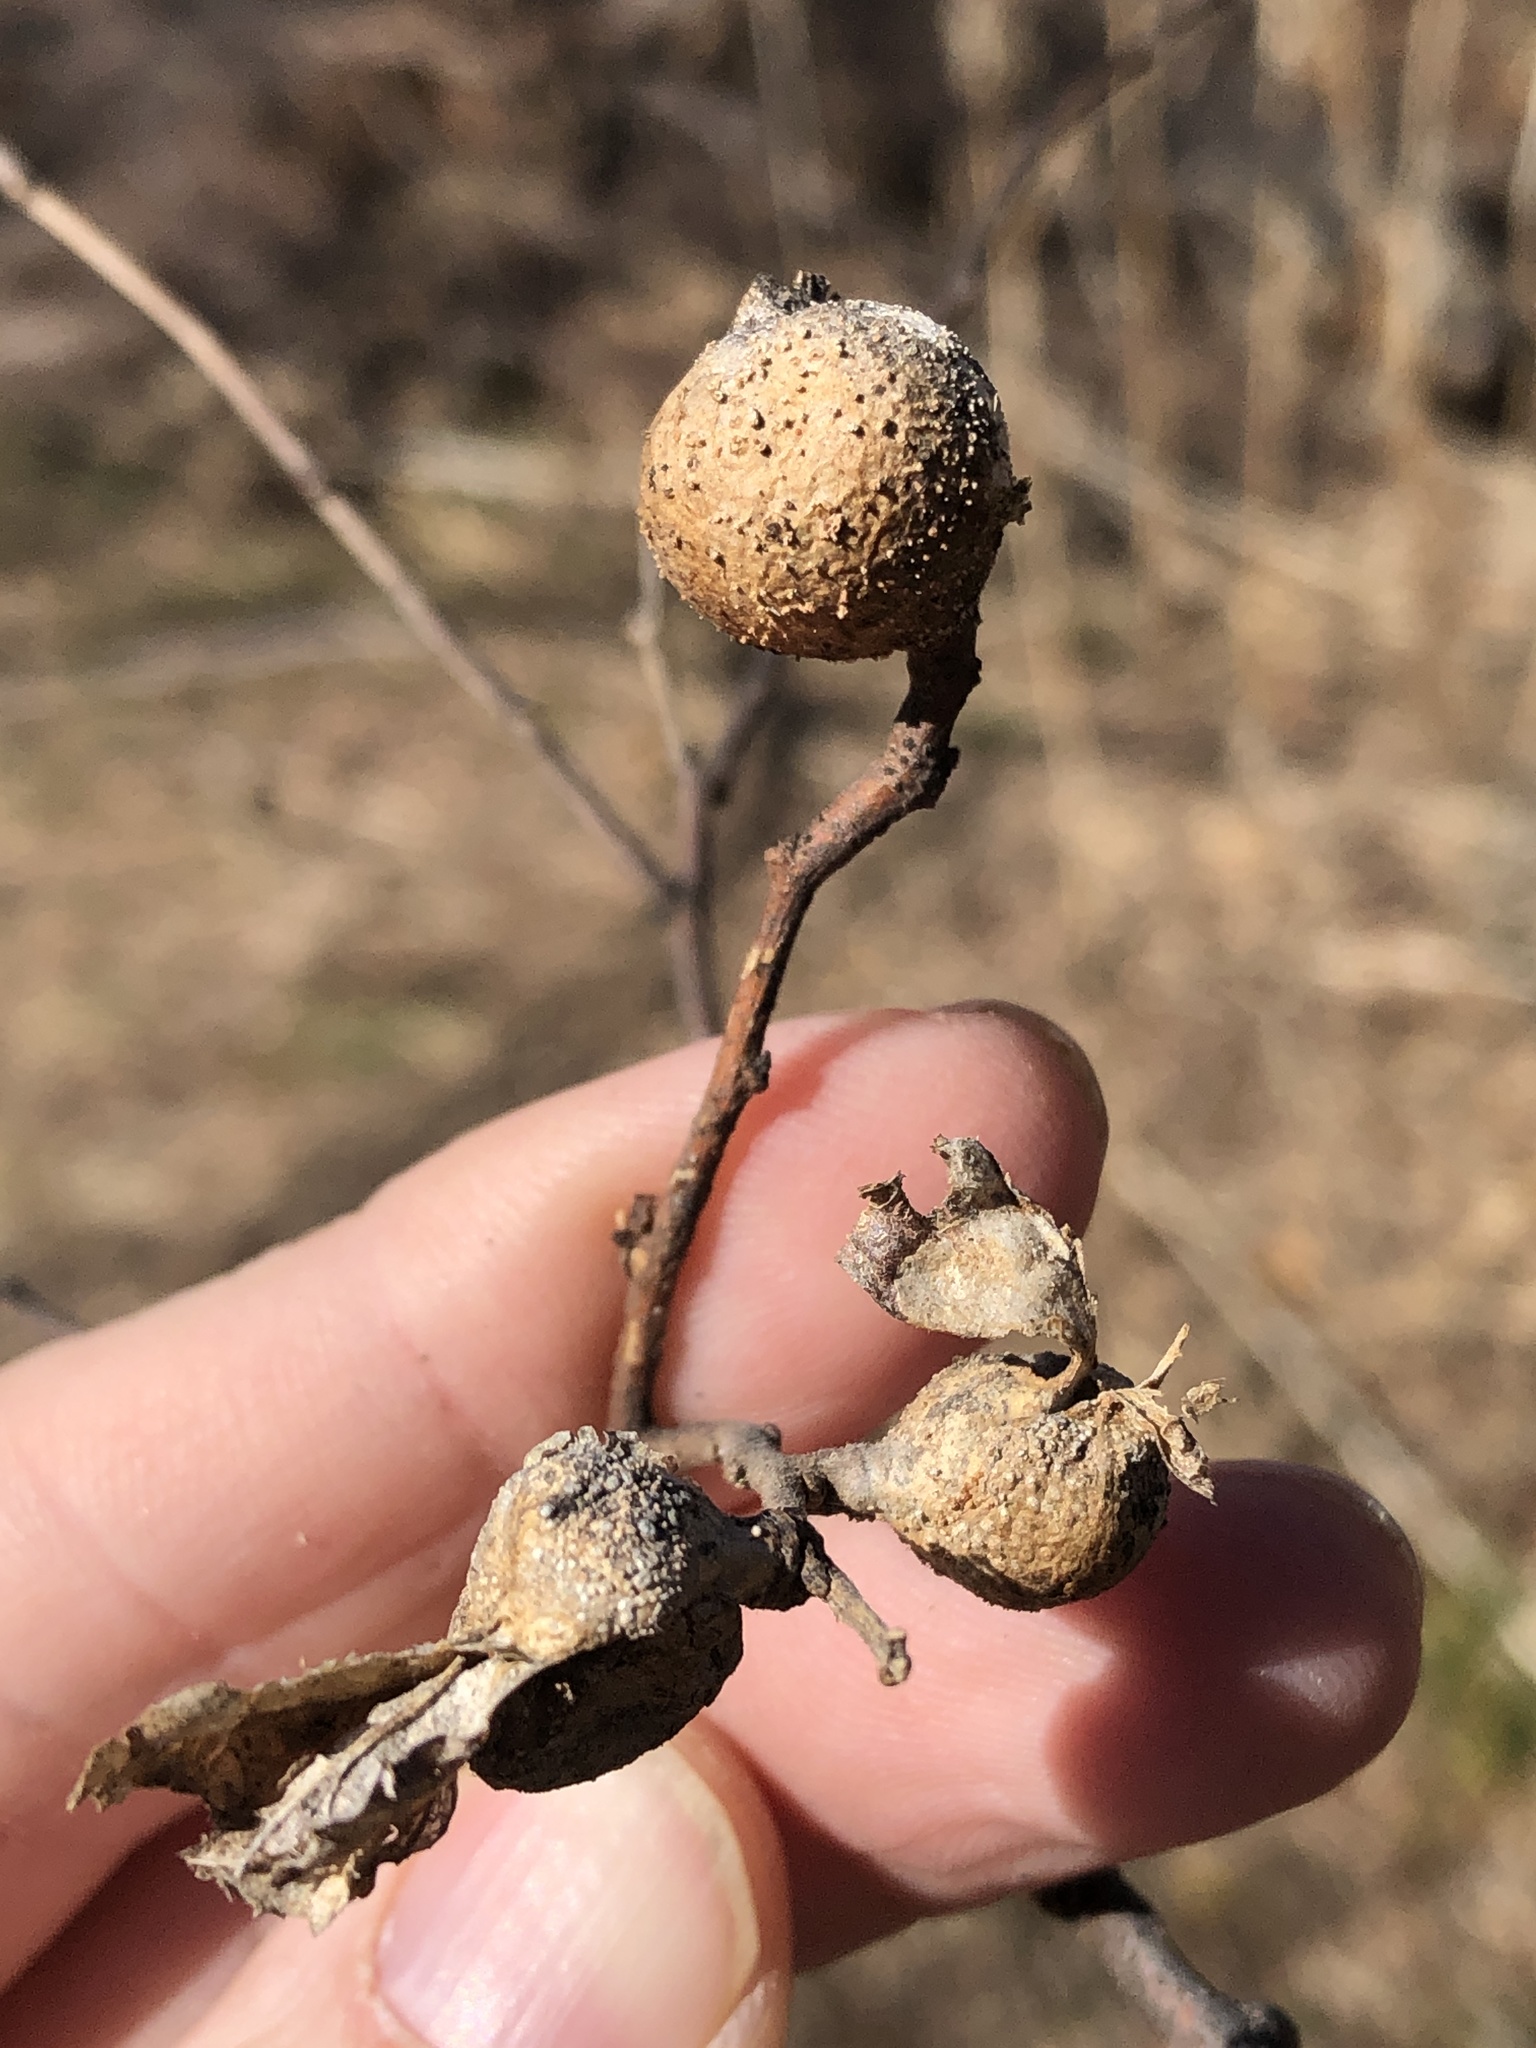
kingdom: Animalia
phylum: Arthropoda
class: Insecta
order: Hemiptera
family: Aphalaridae
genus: Pachypsylla
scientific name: Pachypsylla venusta
